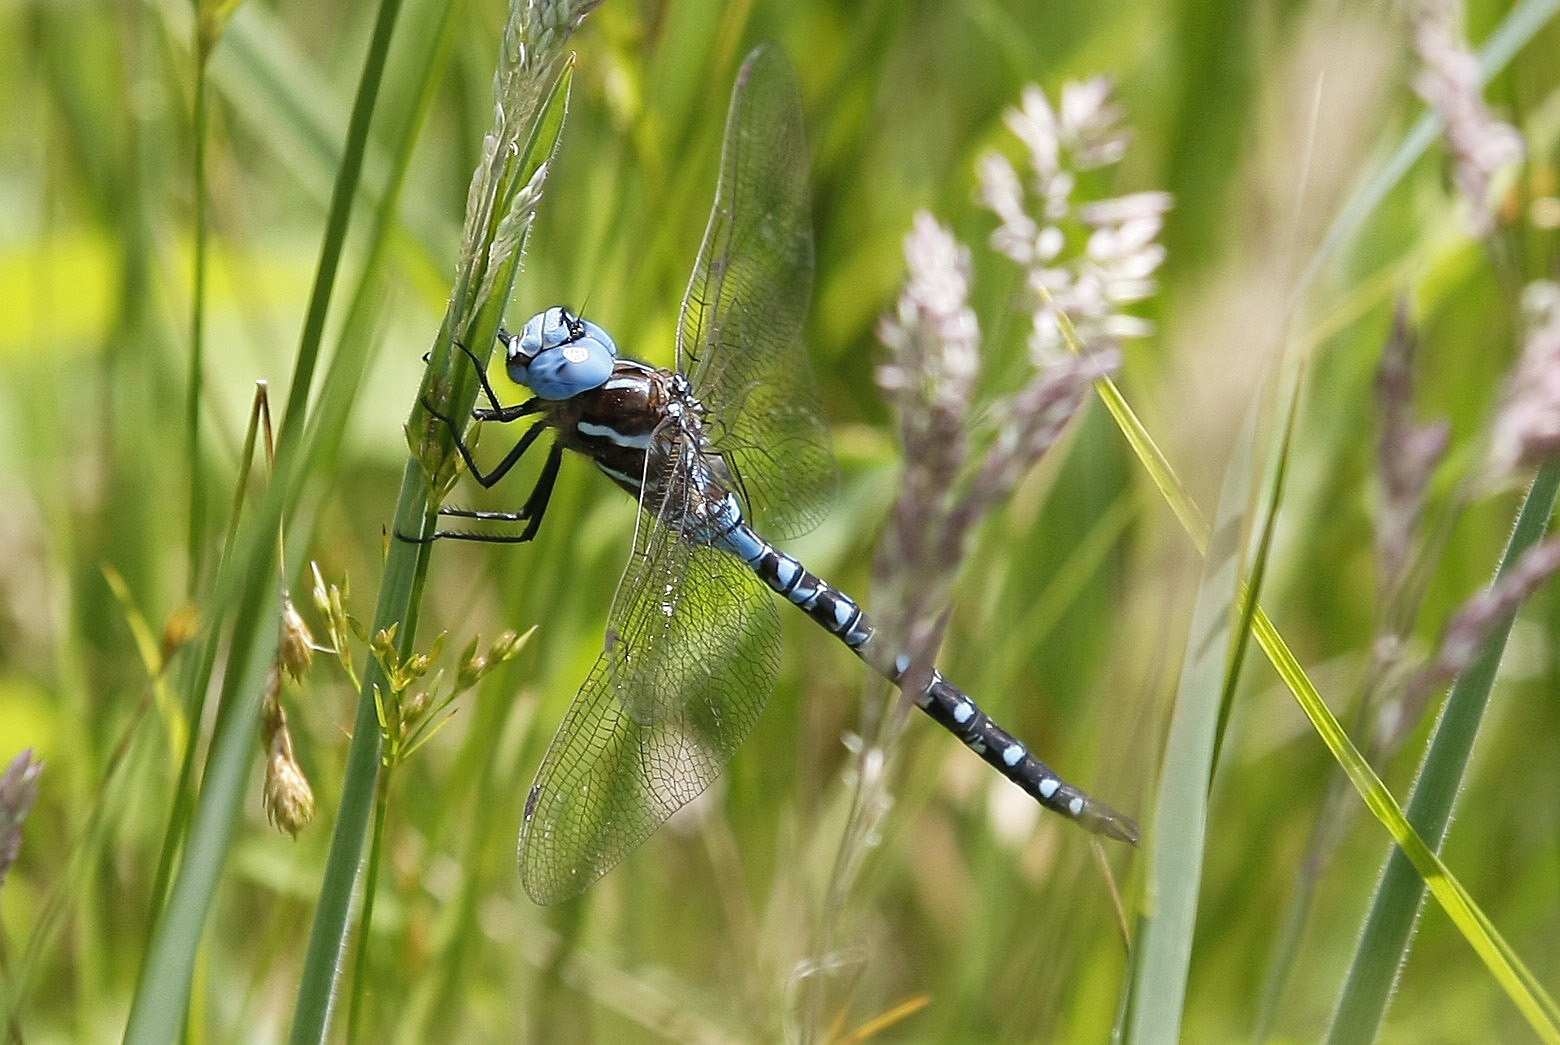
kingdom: Animalia
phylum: Arthropoda
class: Insecta
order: Odonata
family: Aeshnidae
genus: Rhionaeschna
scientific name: Rhionaeschna mutata
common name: Spatterdock darner
